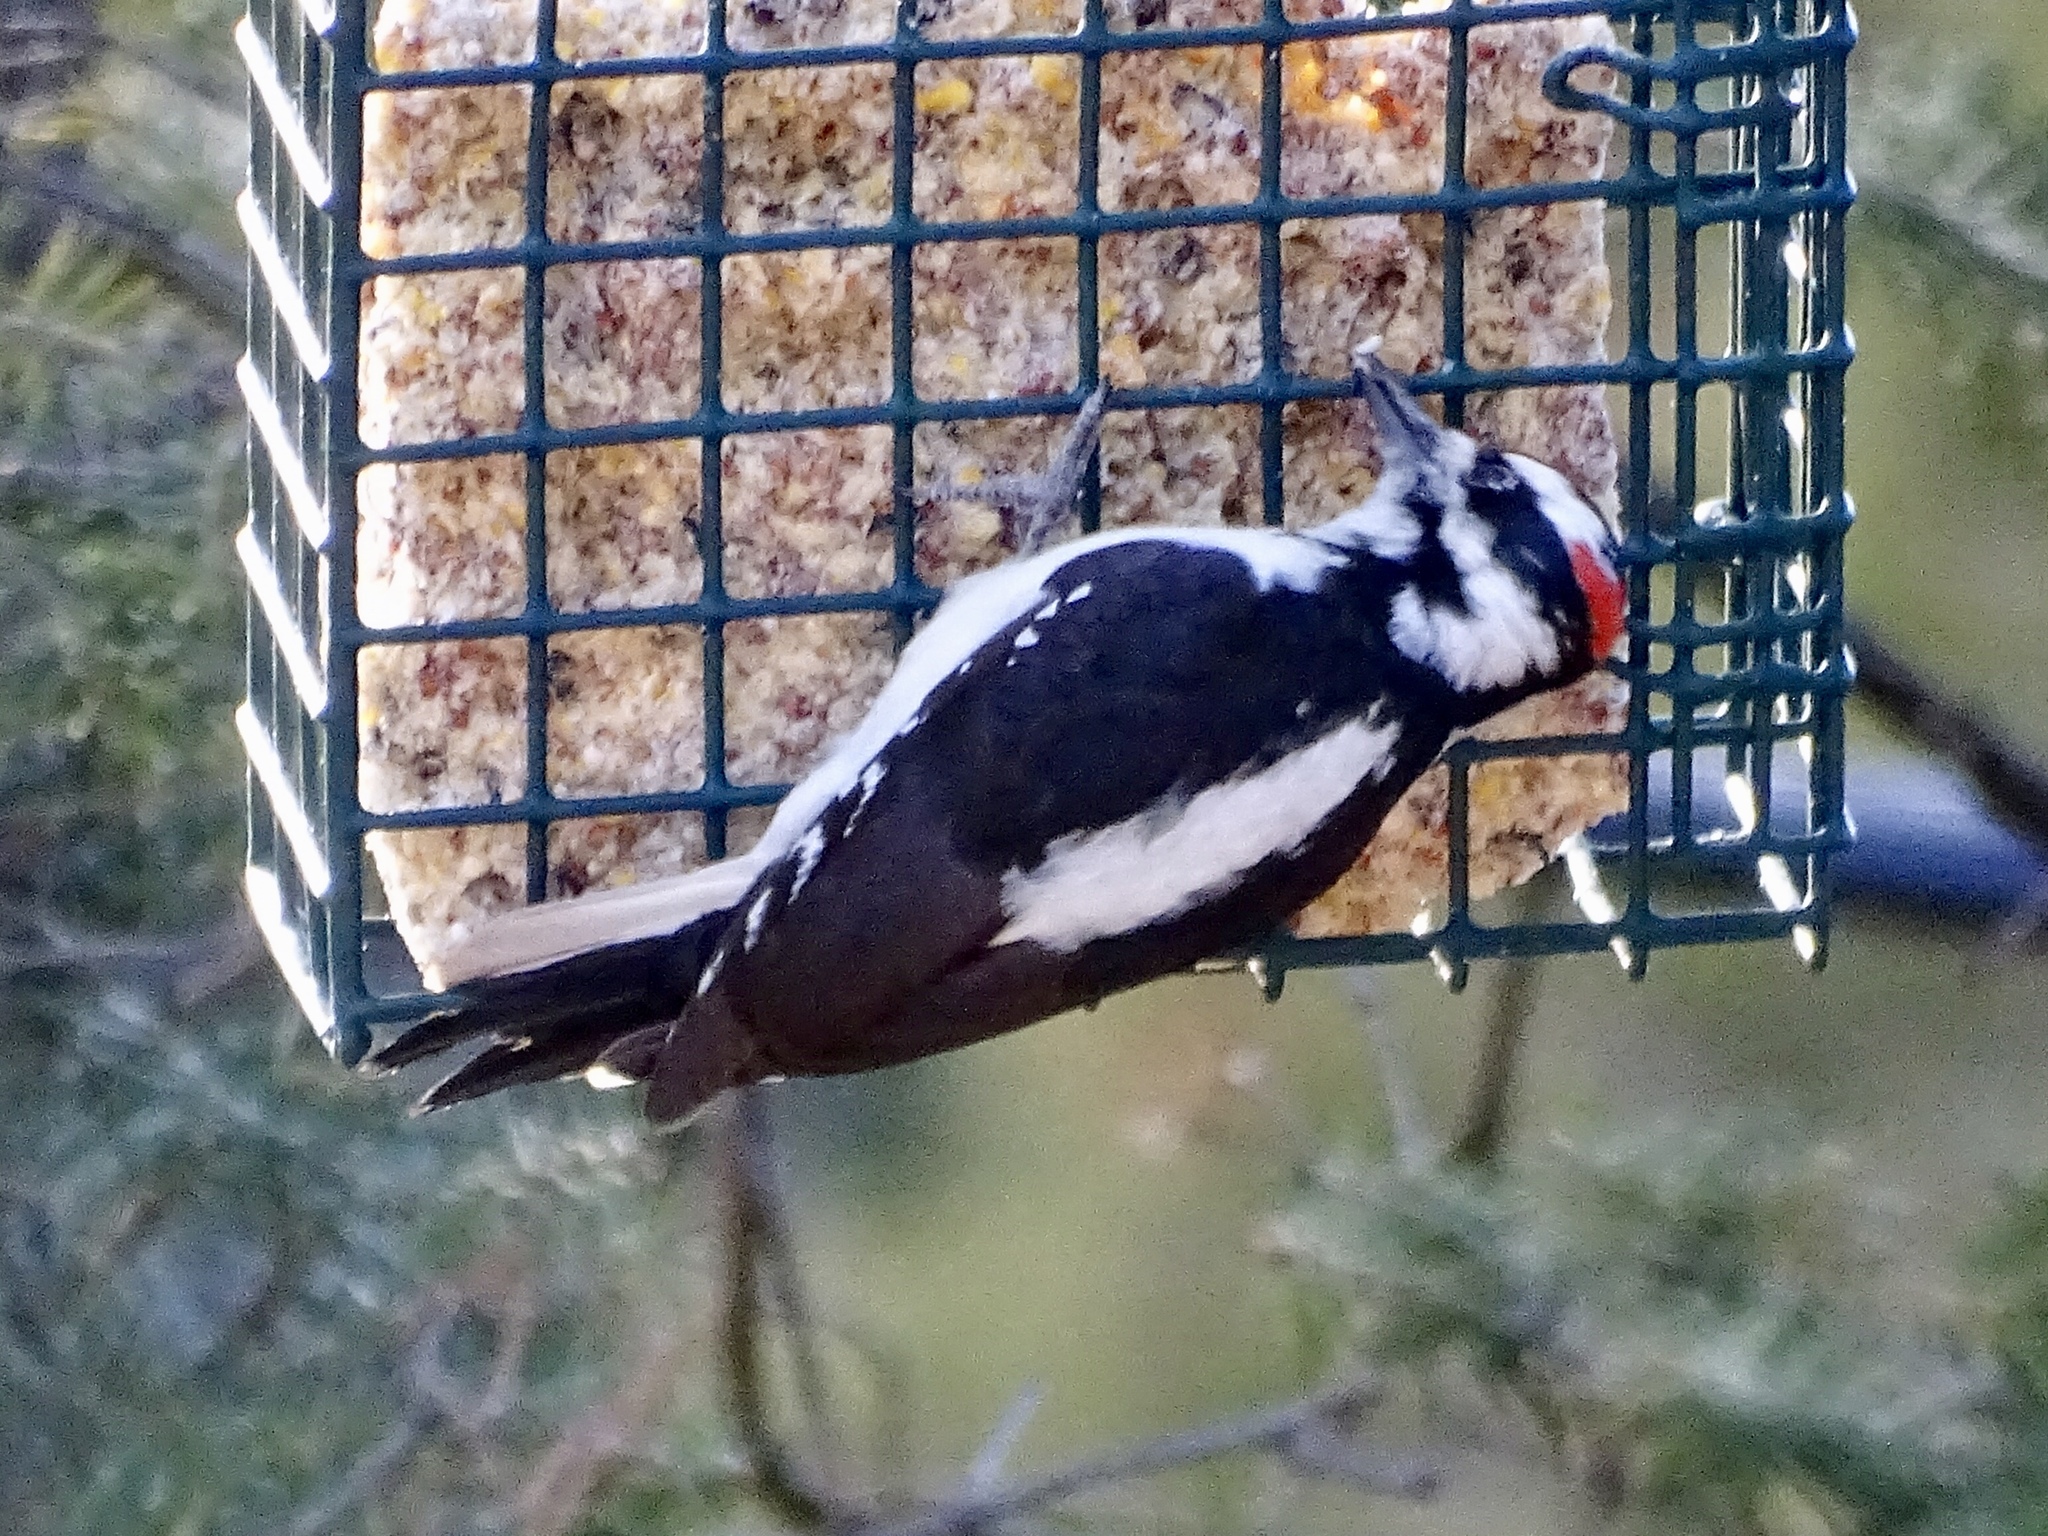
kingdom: Animalia
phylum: Chordata
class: Aves
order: Piciformes
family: Picidae
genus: Leuconotopicus
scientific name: Leuconotopicus villosus
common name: Hairy woodpecker
